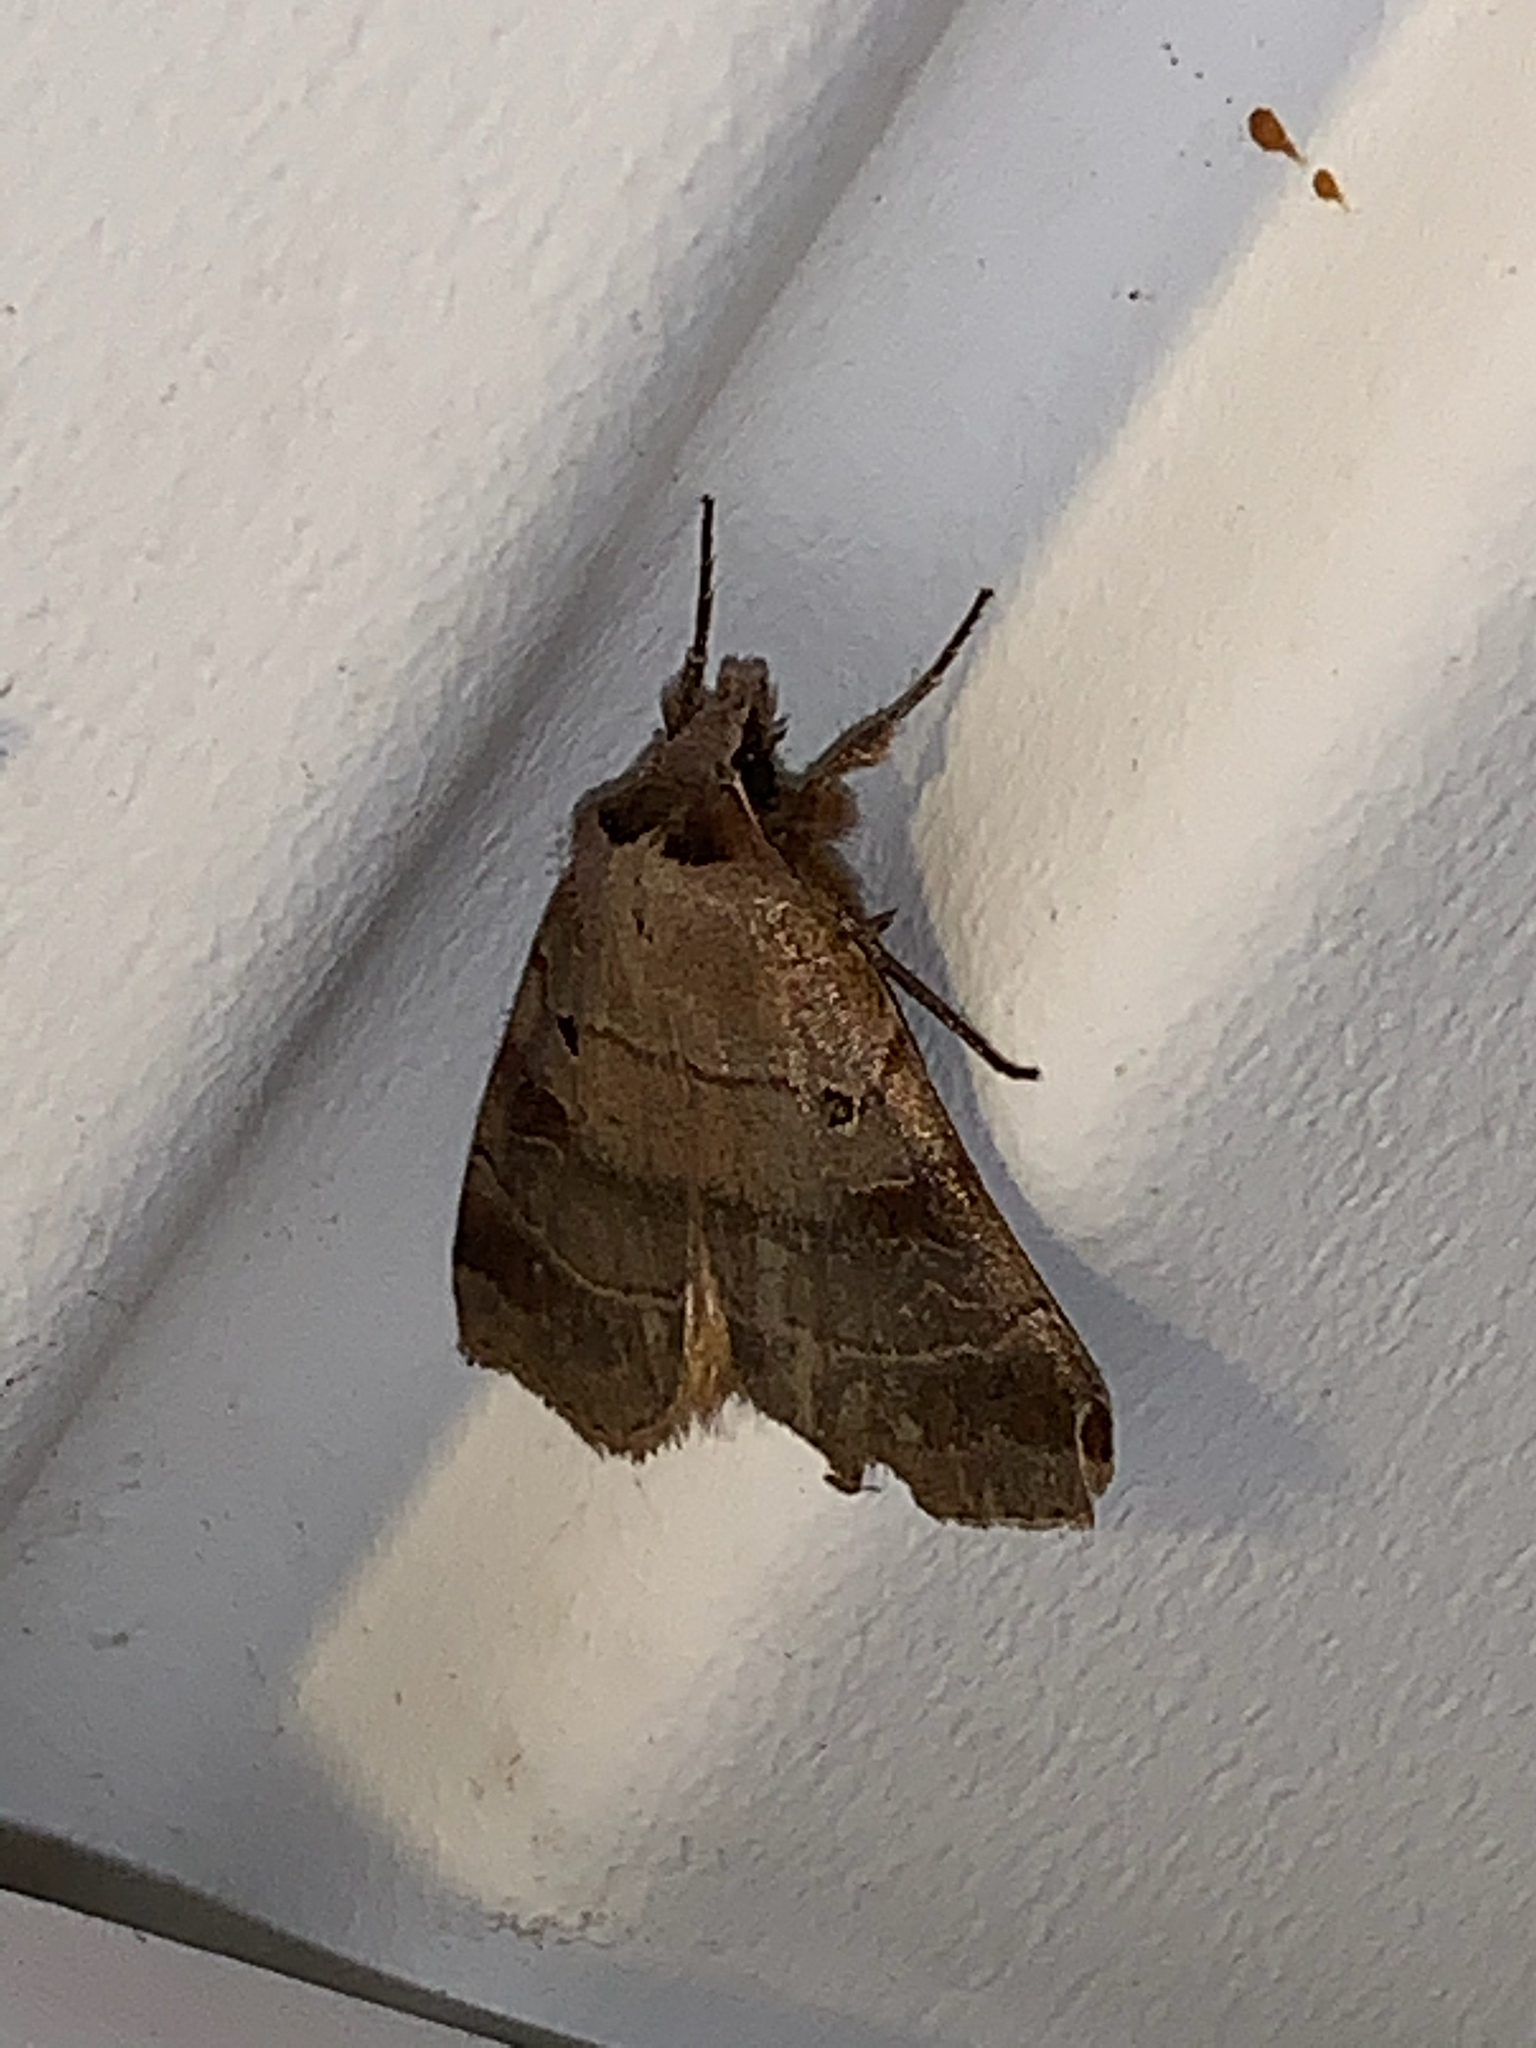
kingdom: Animalia
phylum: Arthropoda
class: Insecta
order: Lepidoptera
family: Noctuidae
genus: Agnorisma
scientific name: Agnorisma badinodis
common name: Pale-banded dart
